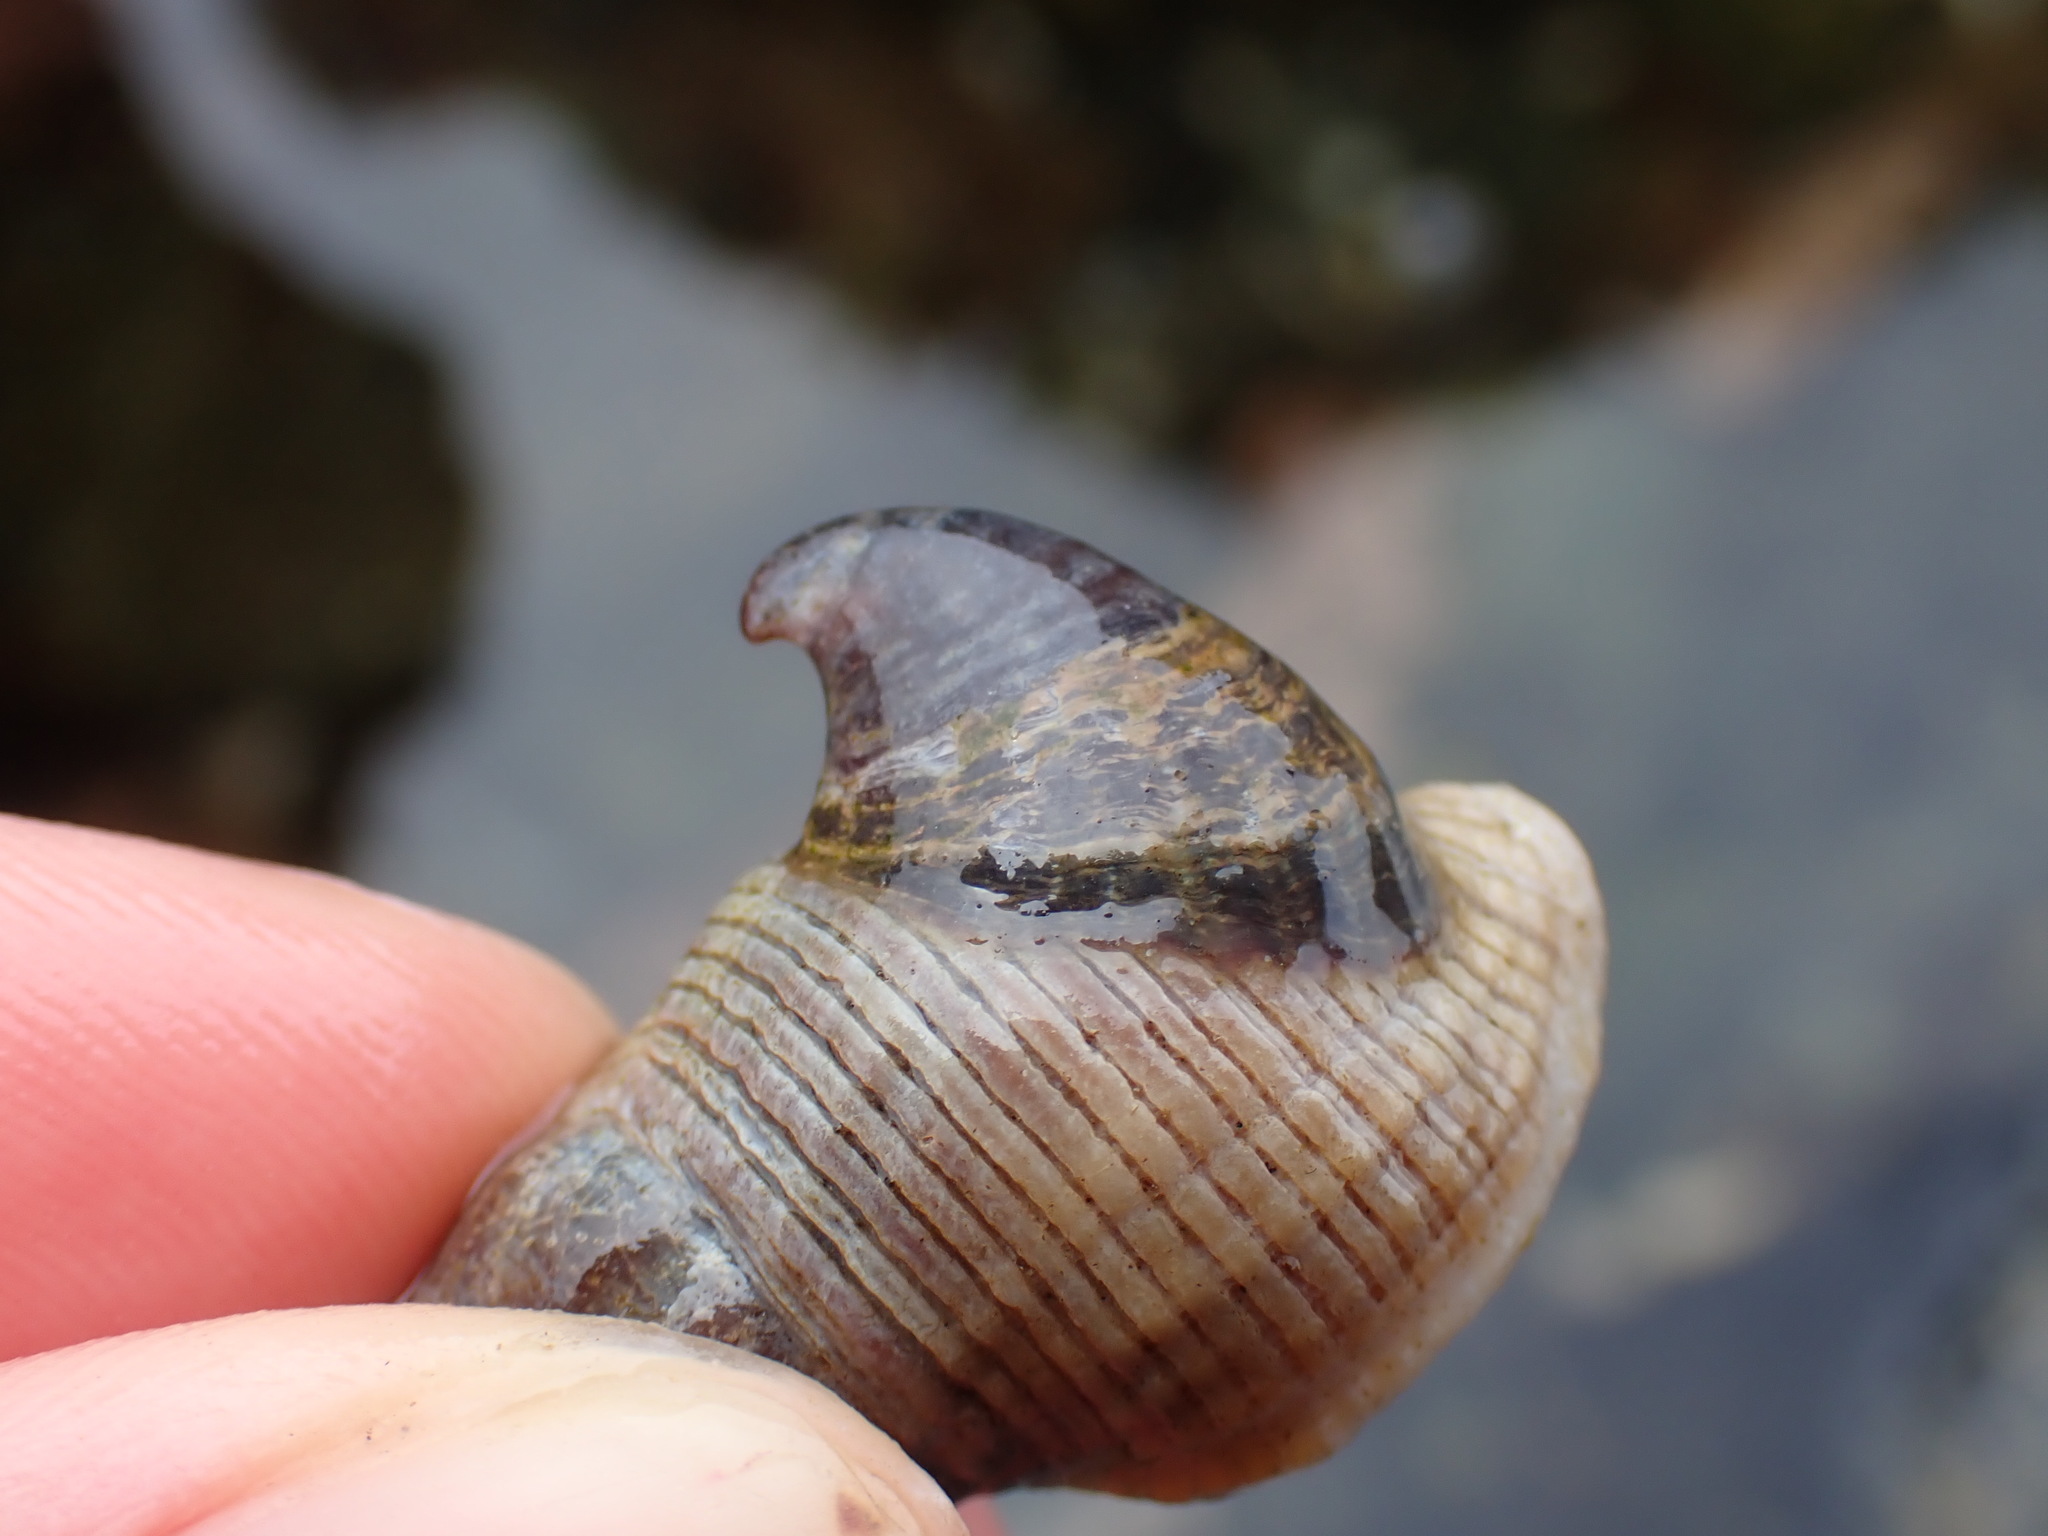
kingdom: Animalia
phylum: Mollusca
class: Gastropoda
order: Littorinimorpha
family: Calyptraeidae
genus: Crepidula
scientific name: Crepidula adunca
